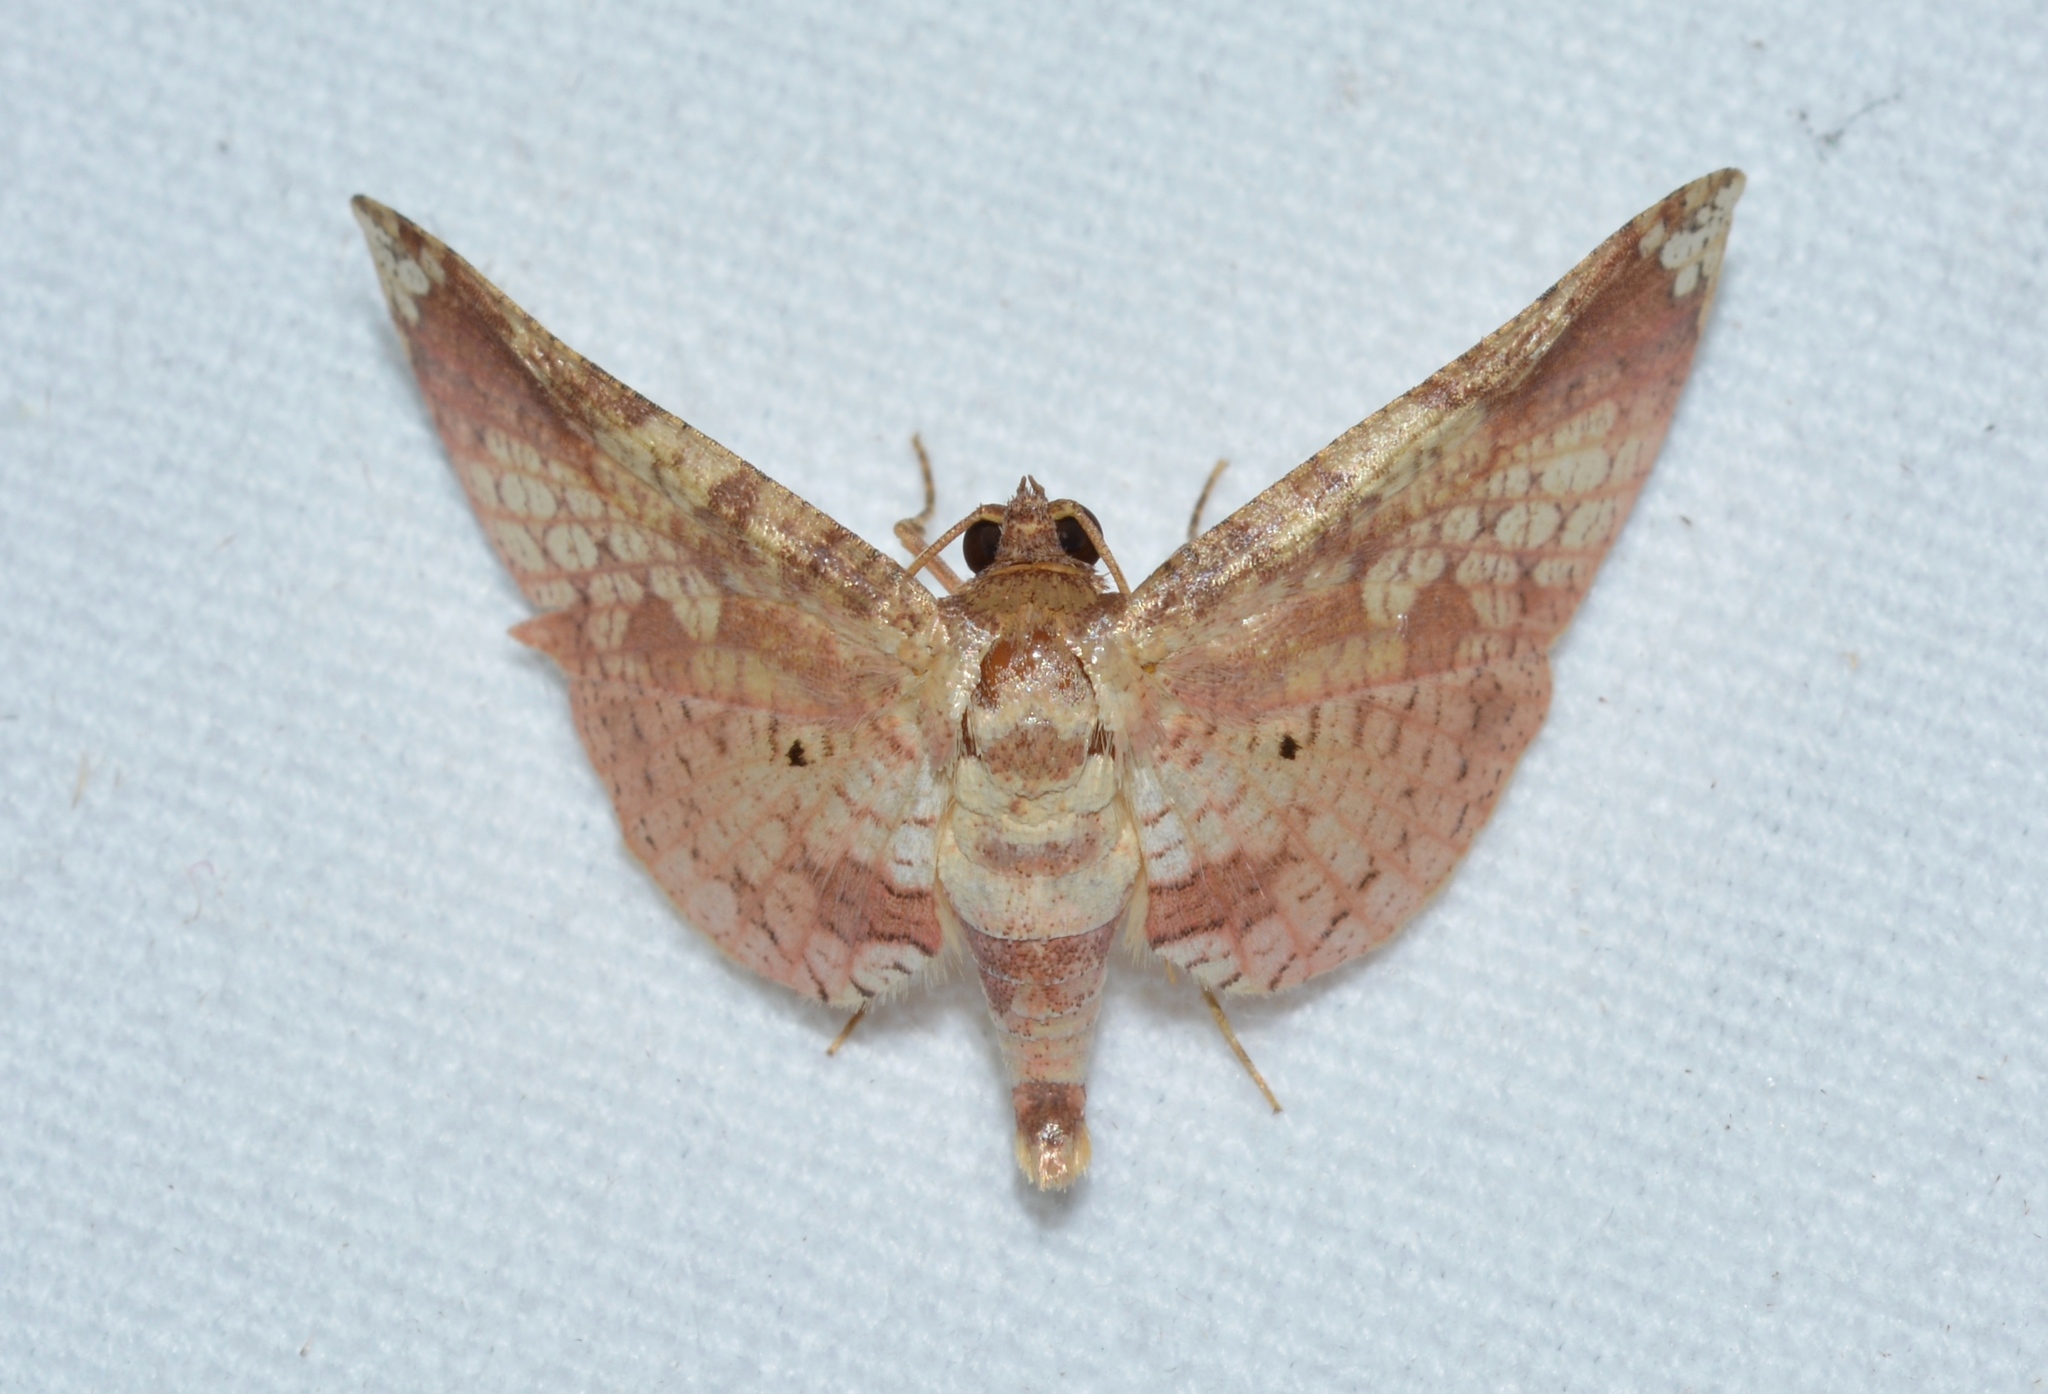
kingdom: Animalia
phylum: Arthropoda
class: Insecta
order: Lepidoptera
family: Thyrididae
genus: Microsca
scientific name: Microsca hedilalis
